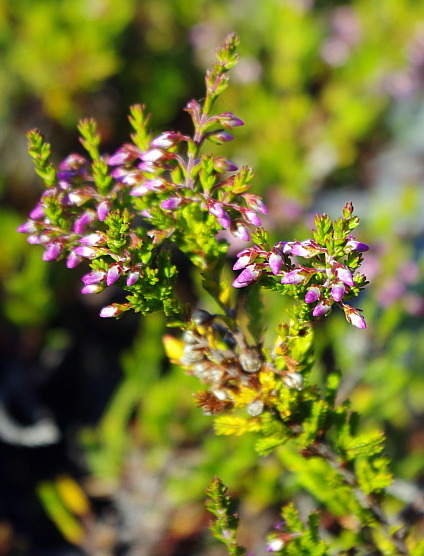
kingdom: Plantae
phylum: Tracheophyta
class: Magnoliopsida
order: Ericales
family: Ericaceae
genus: Calluna
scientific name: Calluna vulgaris
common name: Heather
